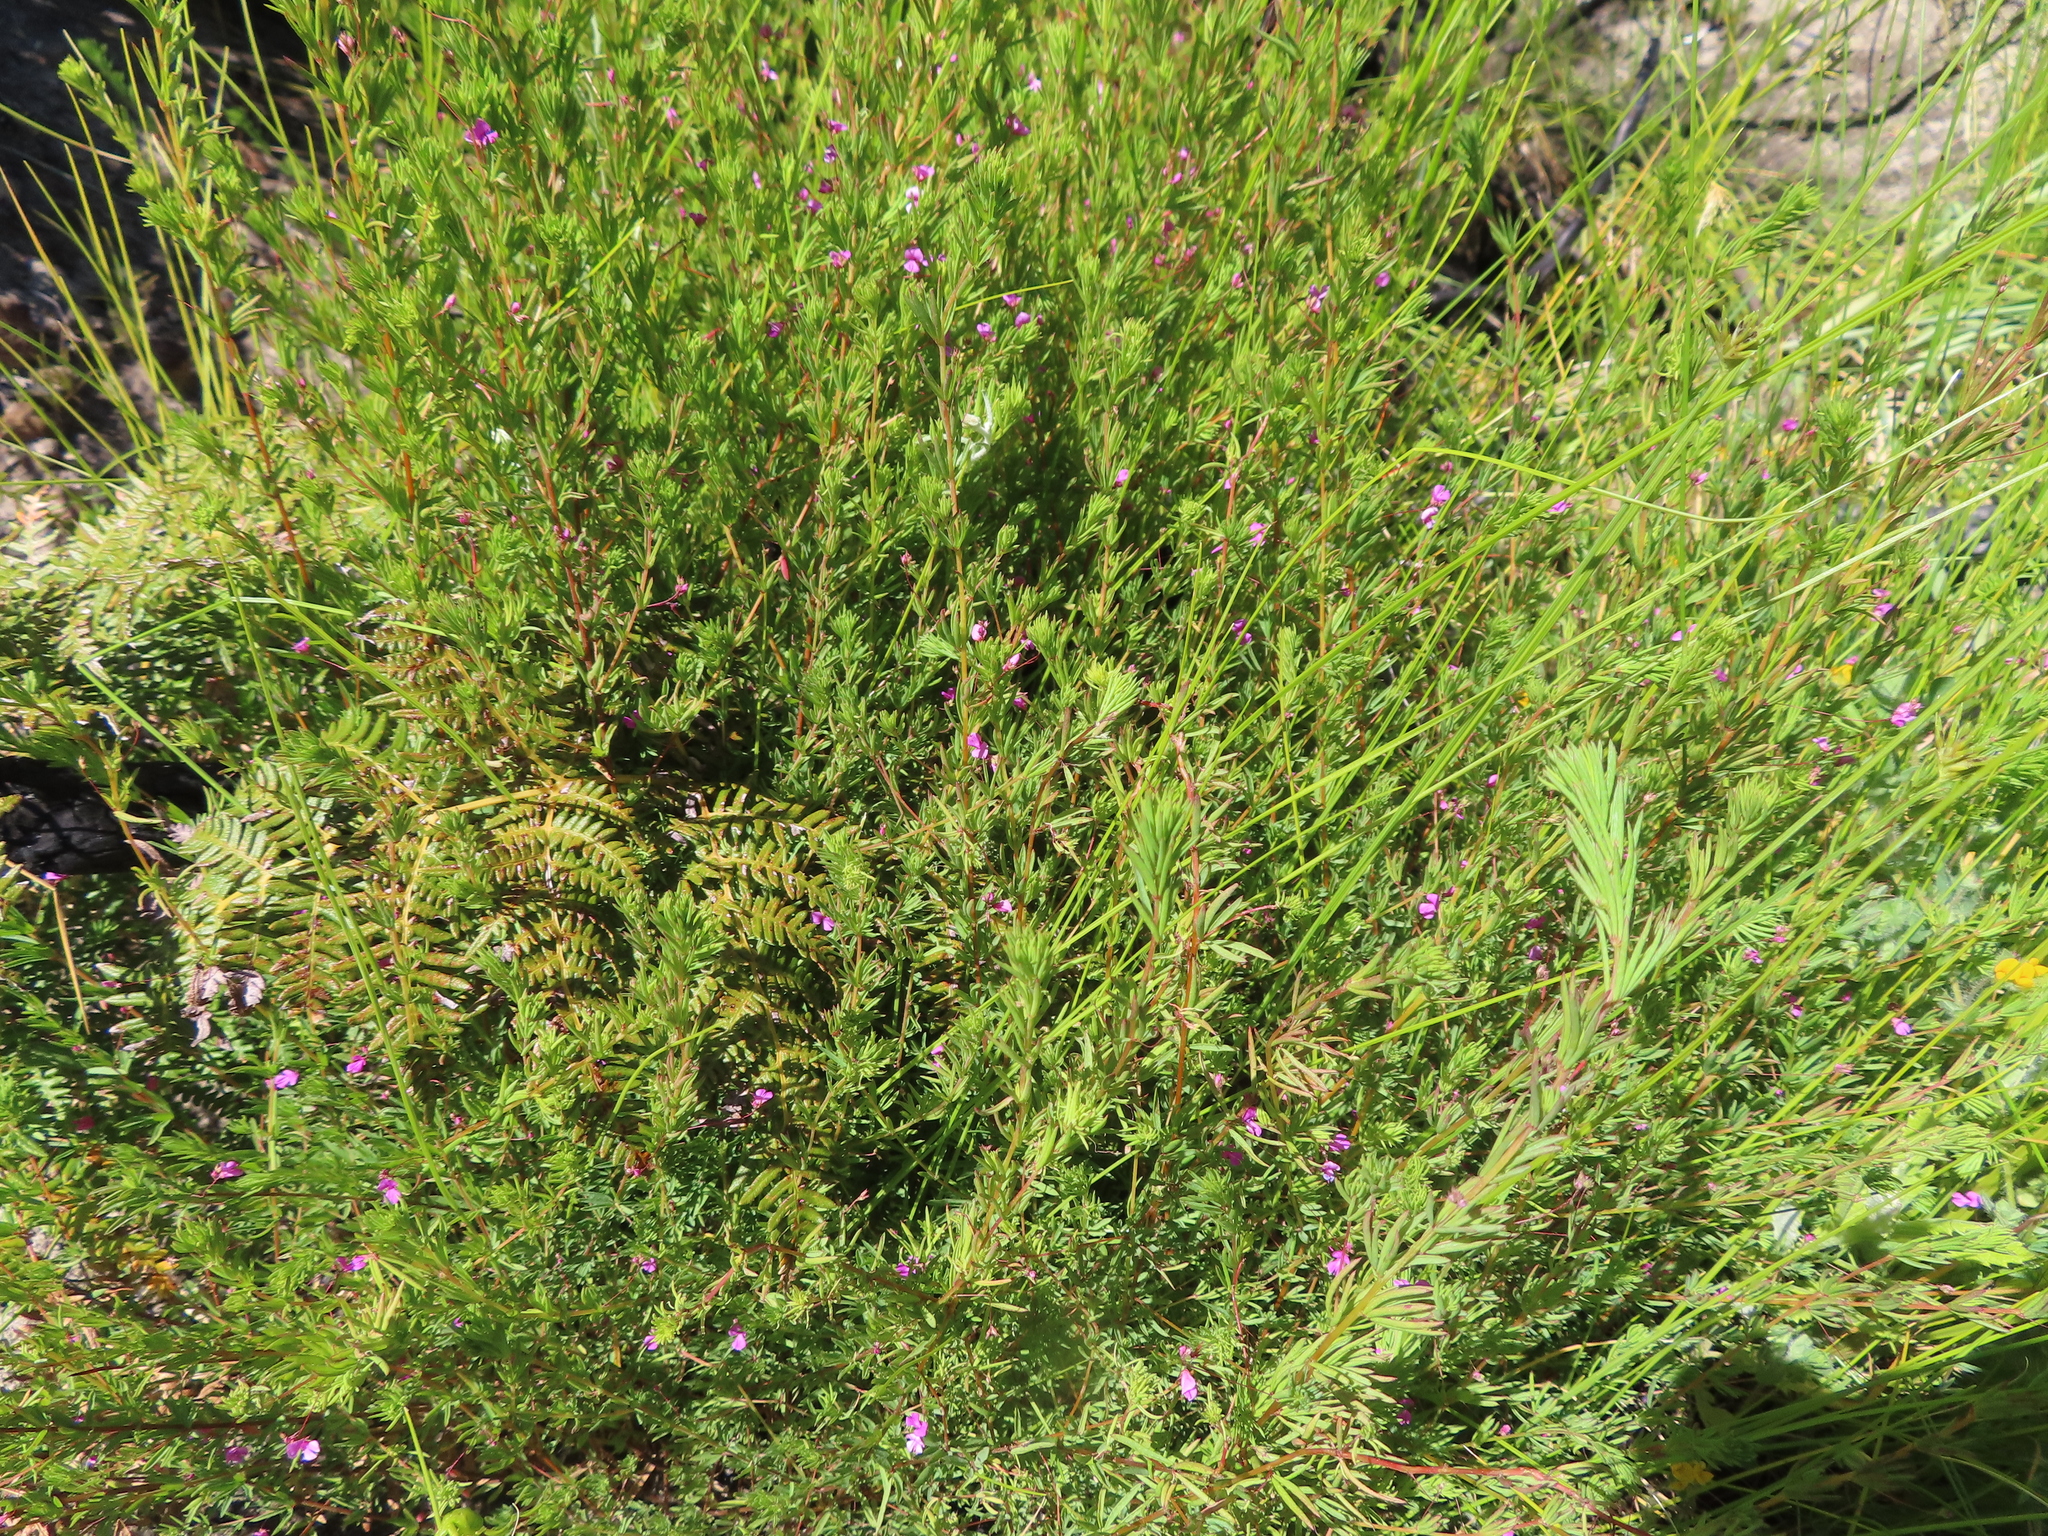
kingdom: Plantae
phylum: Tracheophyta
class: Magnoliopsida
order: Fabales
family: Fabaceae
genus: Indigofera
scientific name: Indigofera filicaulis
